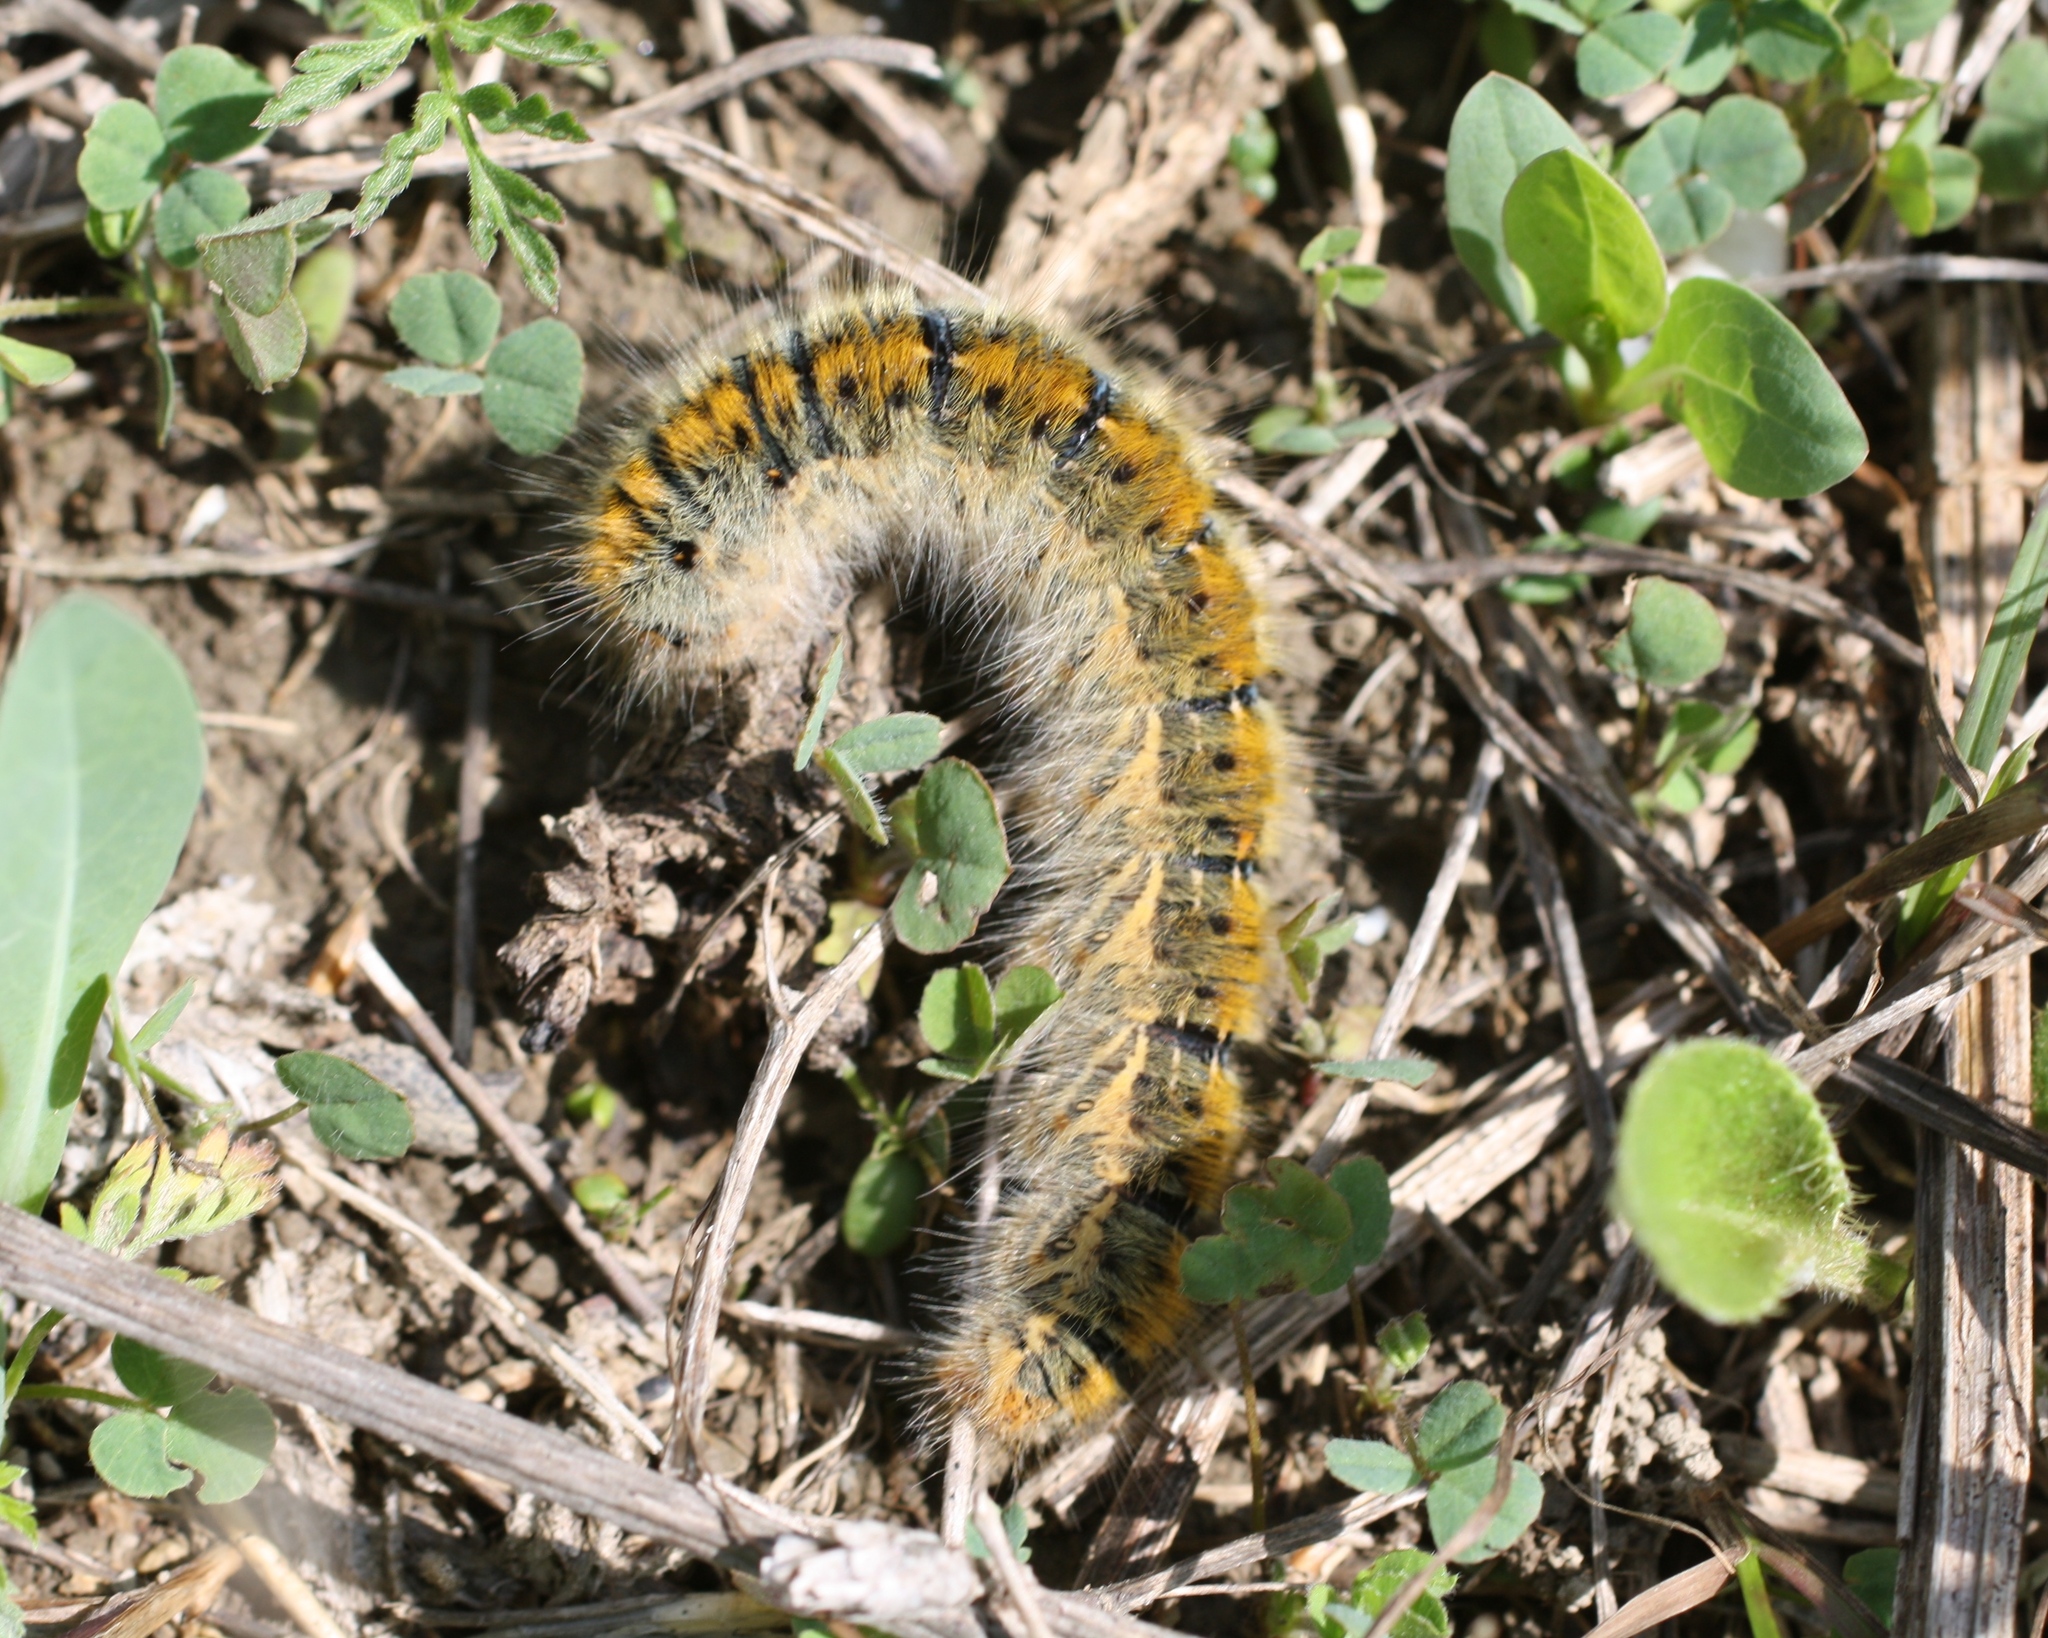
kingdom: Animalia
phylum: Arthropoda
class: Insecta
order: Lepidoptera
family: Lasiocampidae
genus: Lasiocampa
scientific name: Lasiocampa trifolii
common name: Grass eggar
